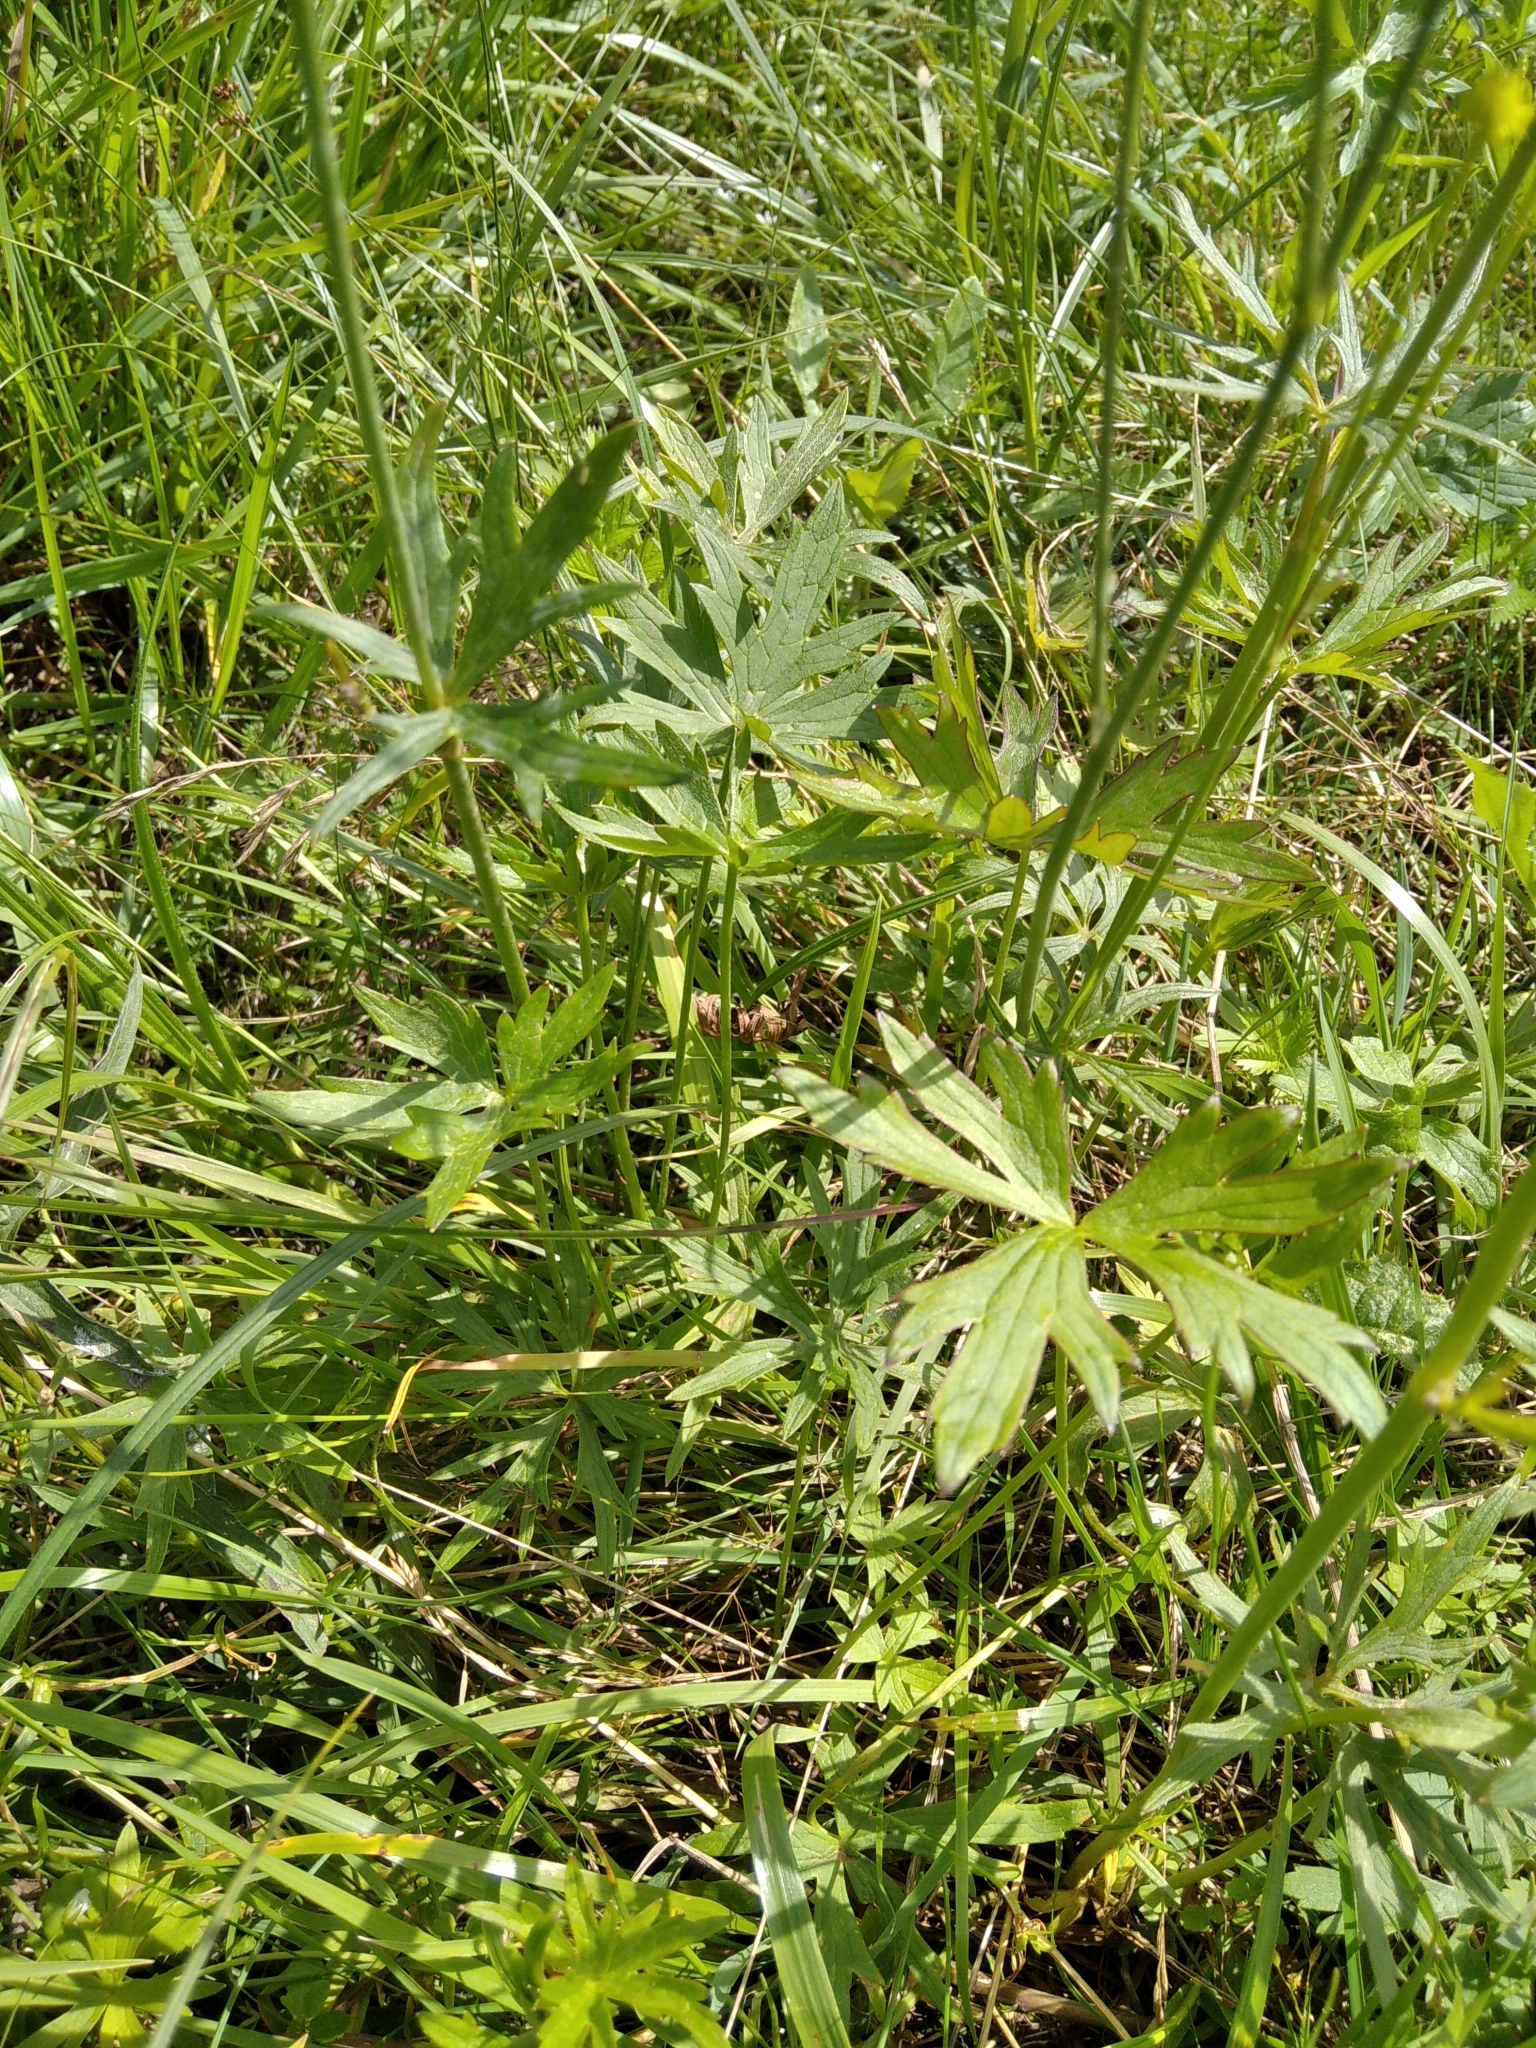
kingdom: Plantae
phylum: Tracheophyta
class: Magnoliopsida
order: Ranunculales
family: Ranunculaceae
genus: Ranunculus
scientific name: Ranunculus acris
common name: Meadow buttercup
